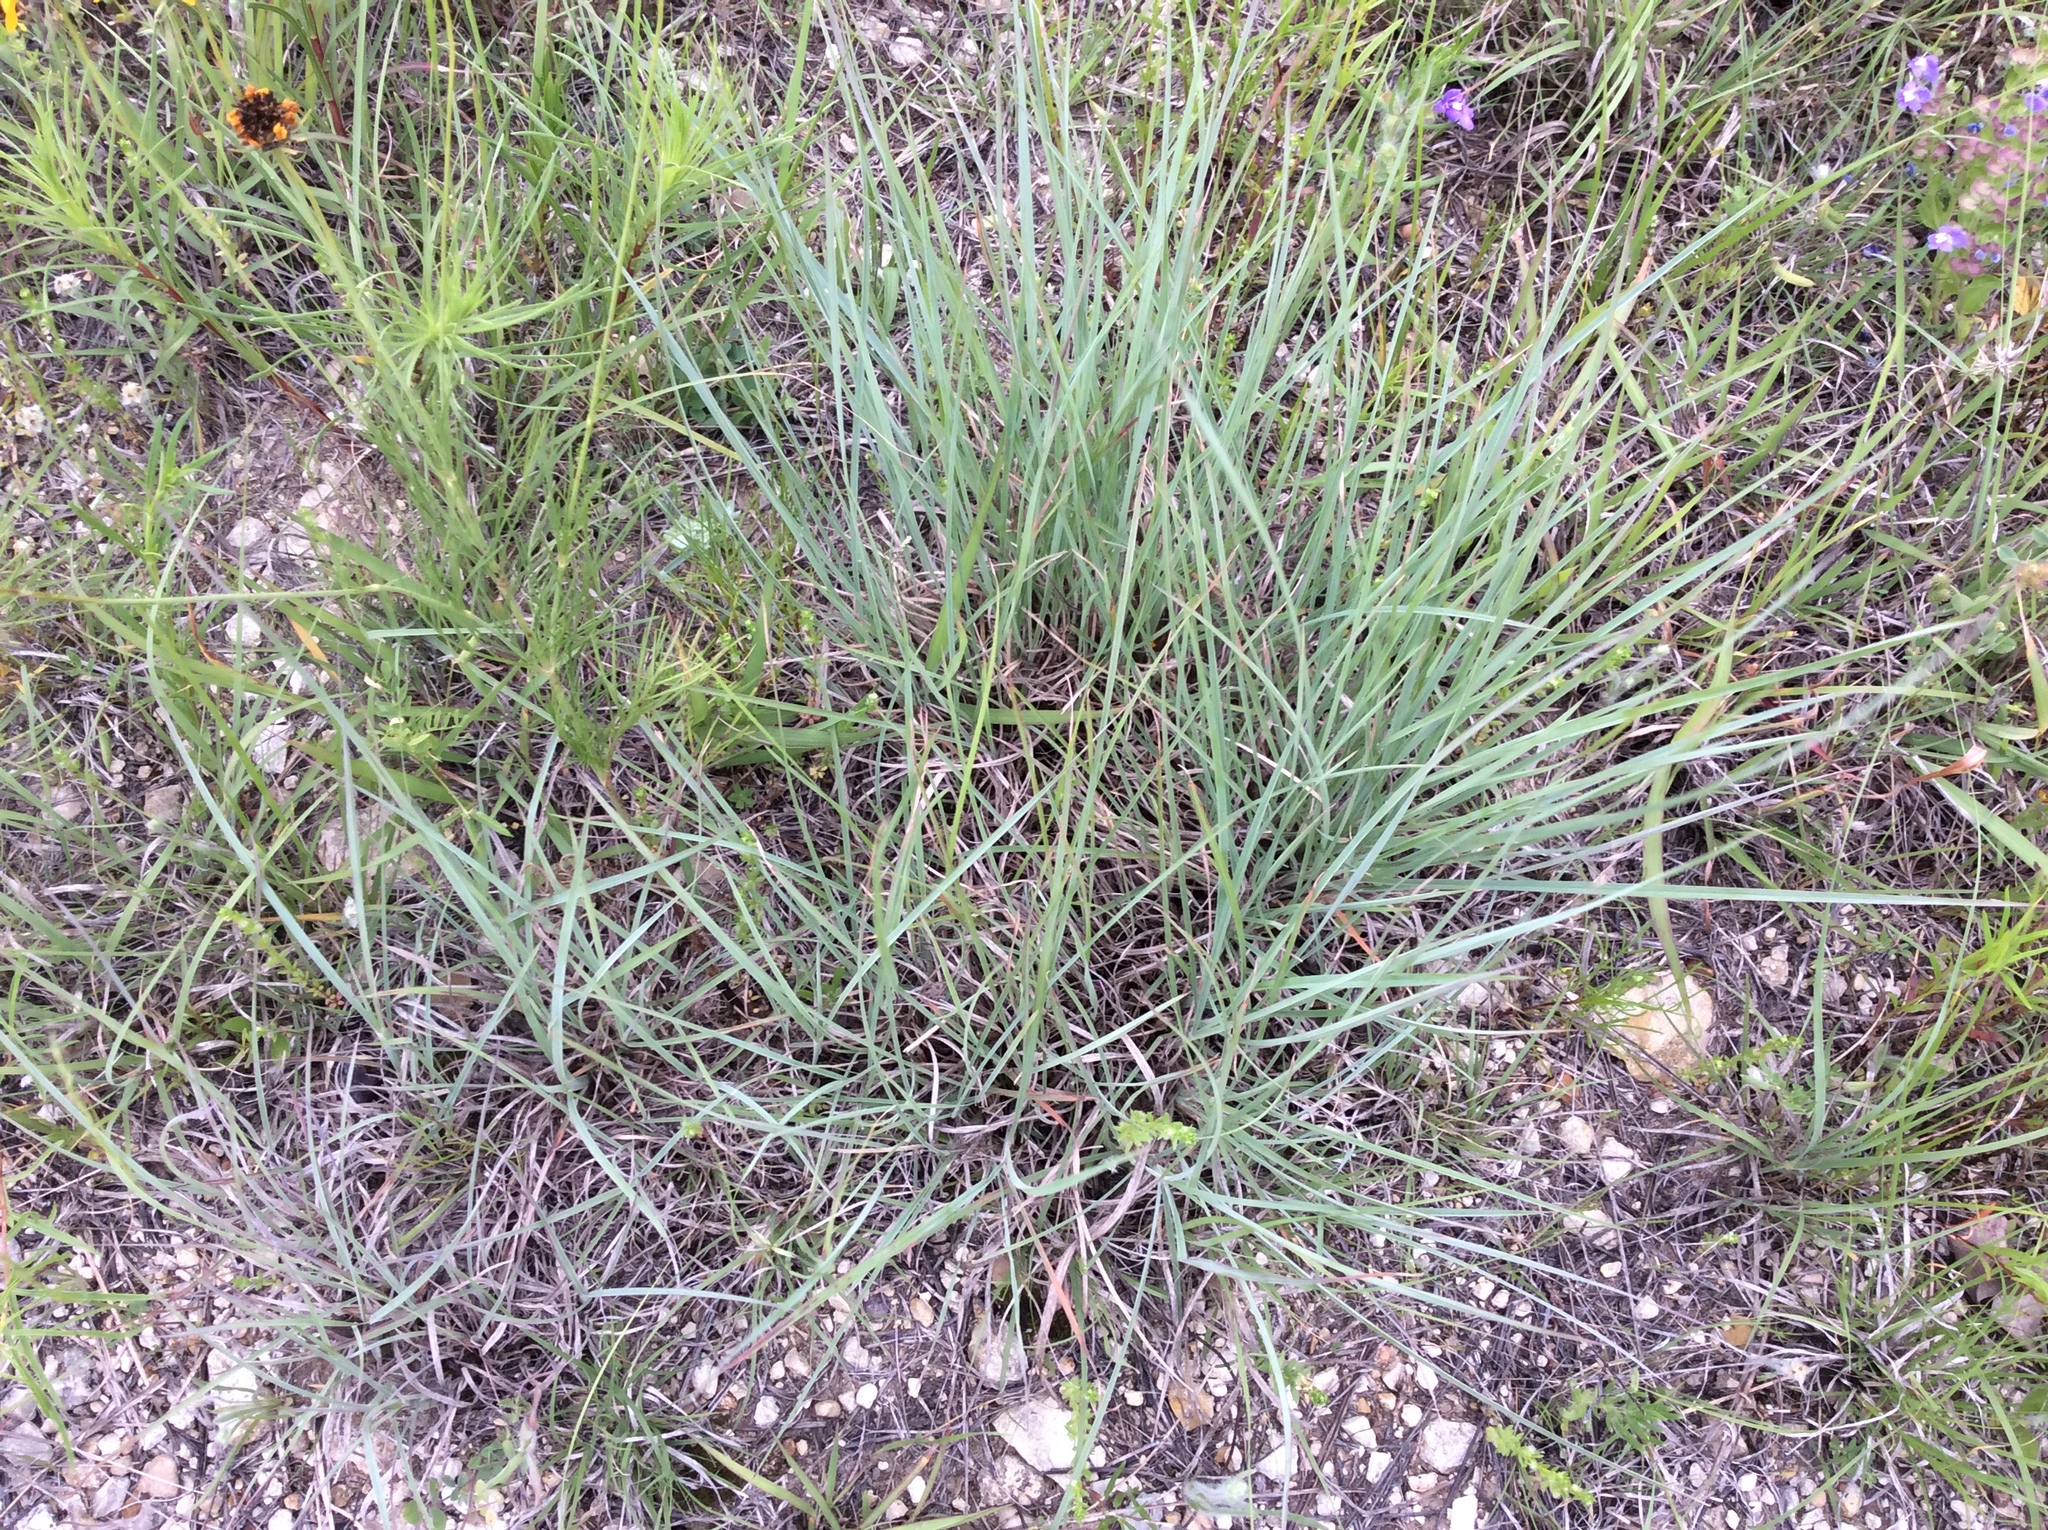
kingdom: Plantae
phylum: Tracheophyta
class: Liliopsida
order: Poales
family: Poaceae
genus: Schizachyrium
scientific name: Schizachyrium scoparium
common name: Little bluestem
